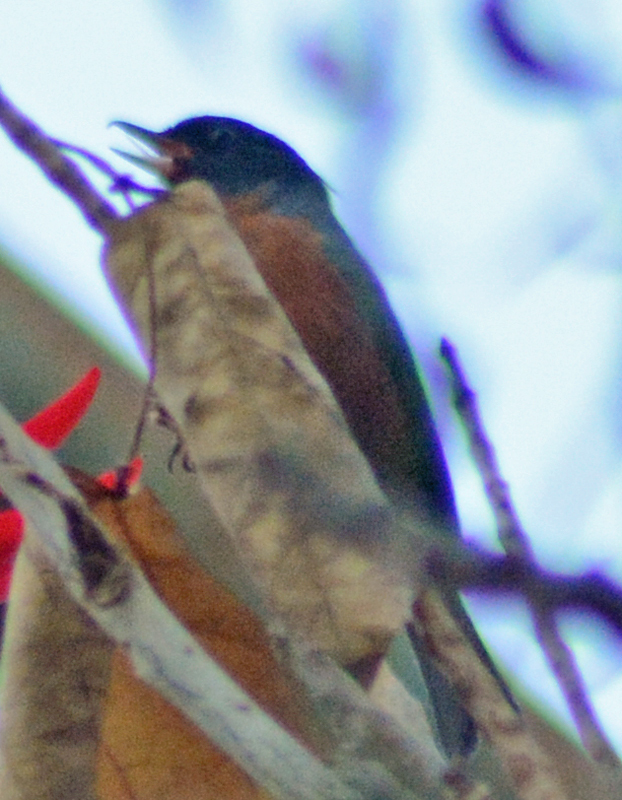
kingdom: Animalia
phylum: Chordata
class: Aves
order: Passeriformes
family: Thraupidae
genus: Diglossa
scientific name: Diglossa baritula
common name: Cinnamon-bellied flowerpiercer
